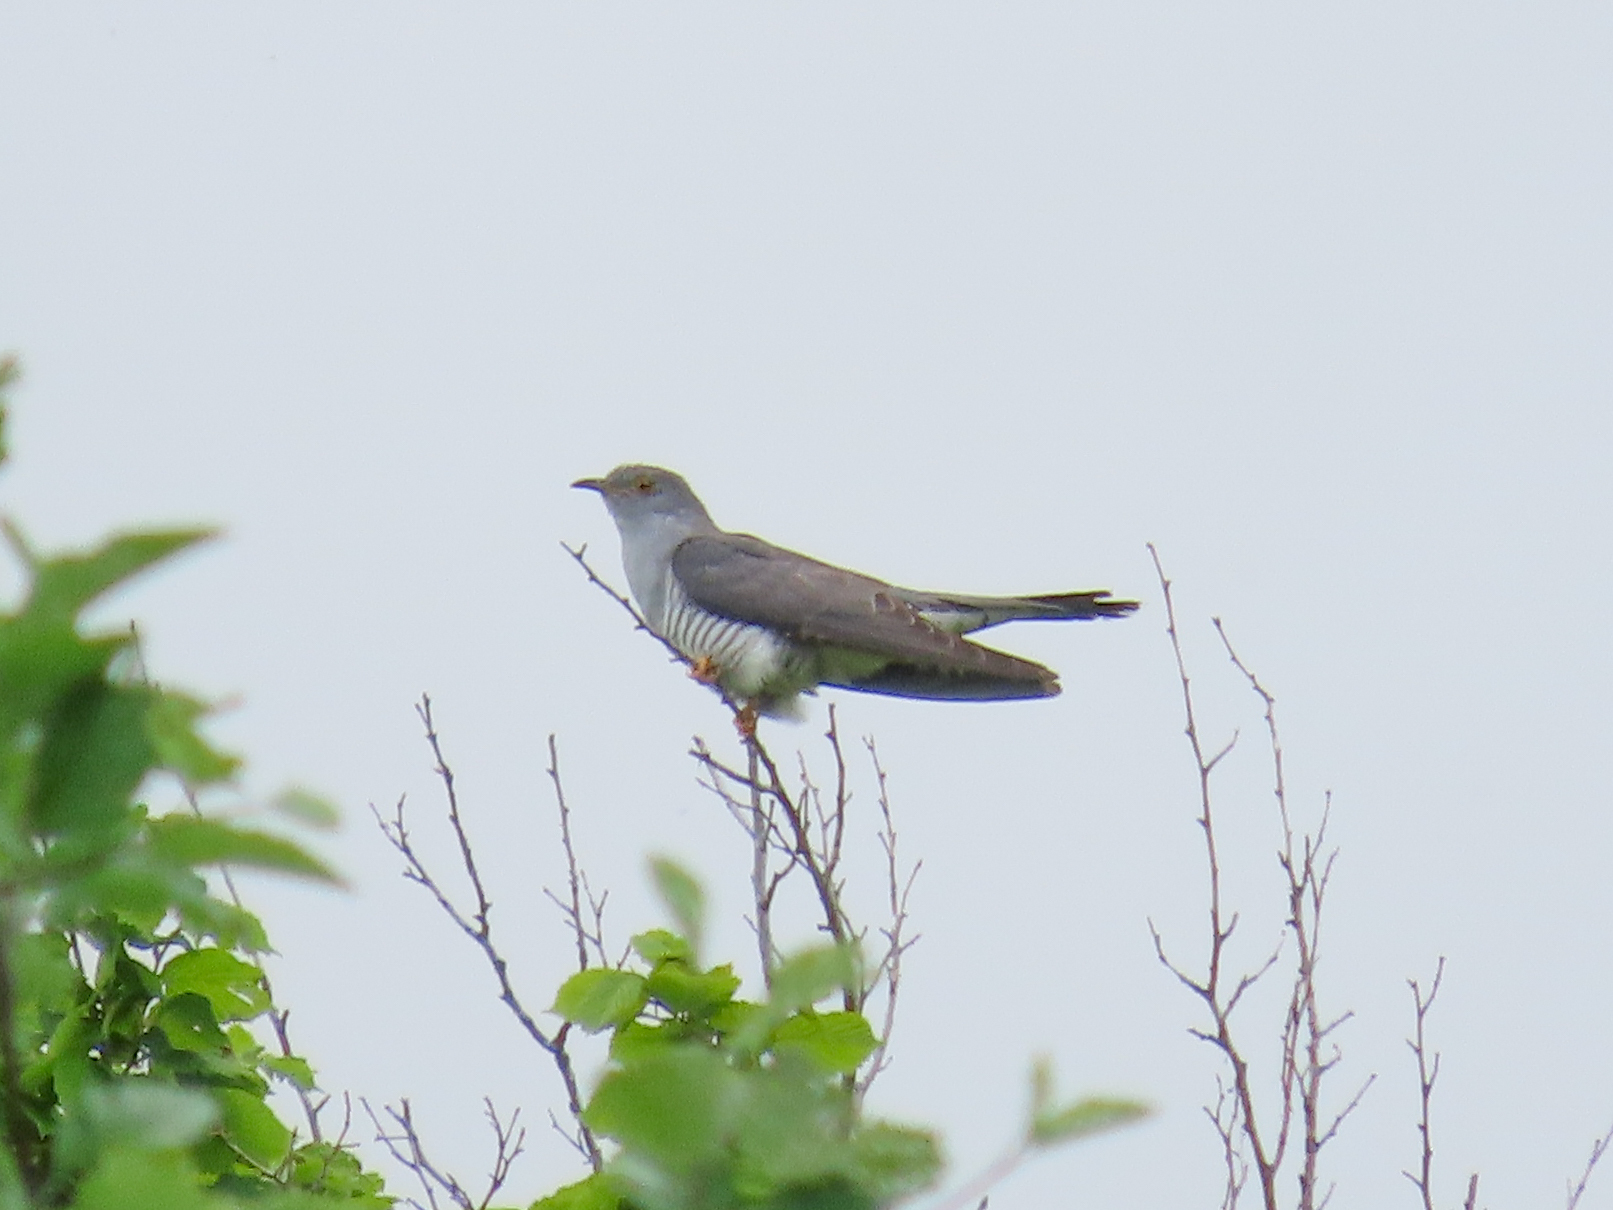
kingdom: Animalia
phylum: Chordata
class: Aves
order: Cuculiformes
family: Cuculidae
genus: Cuculus
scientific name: Cuculus canorus
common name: Common cuckoo
